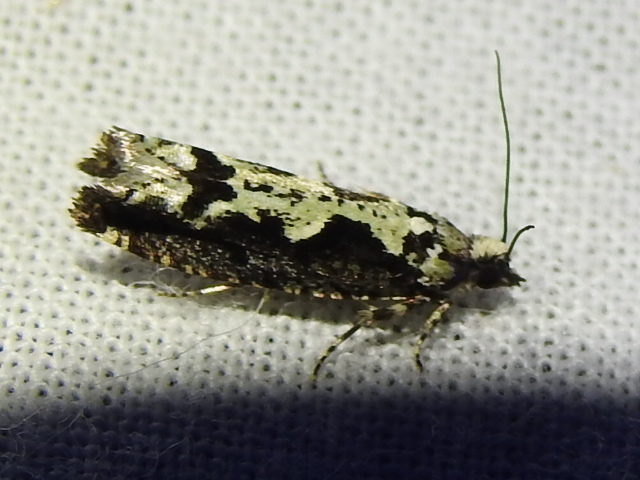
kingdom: Animalia
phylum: Arthropoda
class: Insecta
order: Lepidoptera
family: Tortricidae
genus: Chimoptesis
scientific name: Chimoptesis pennsylvaniana
